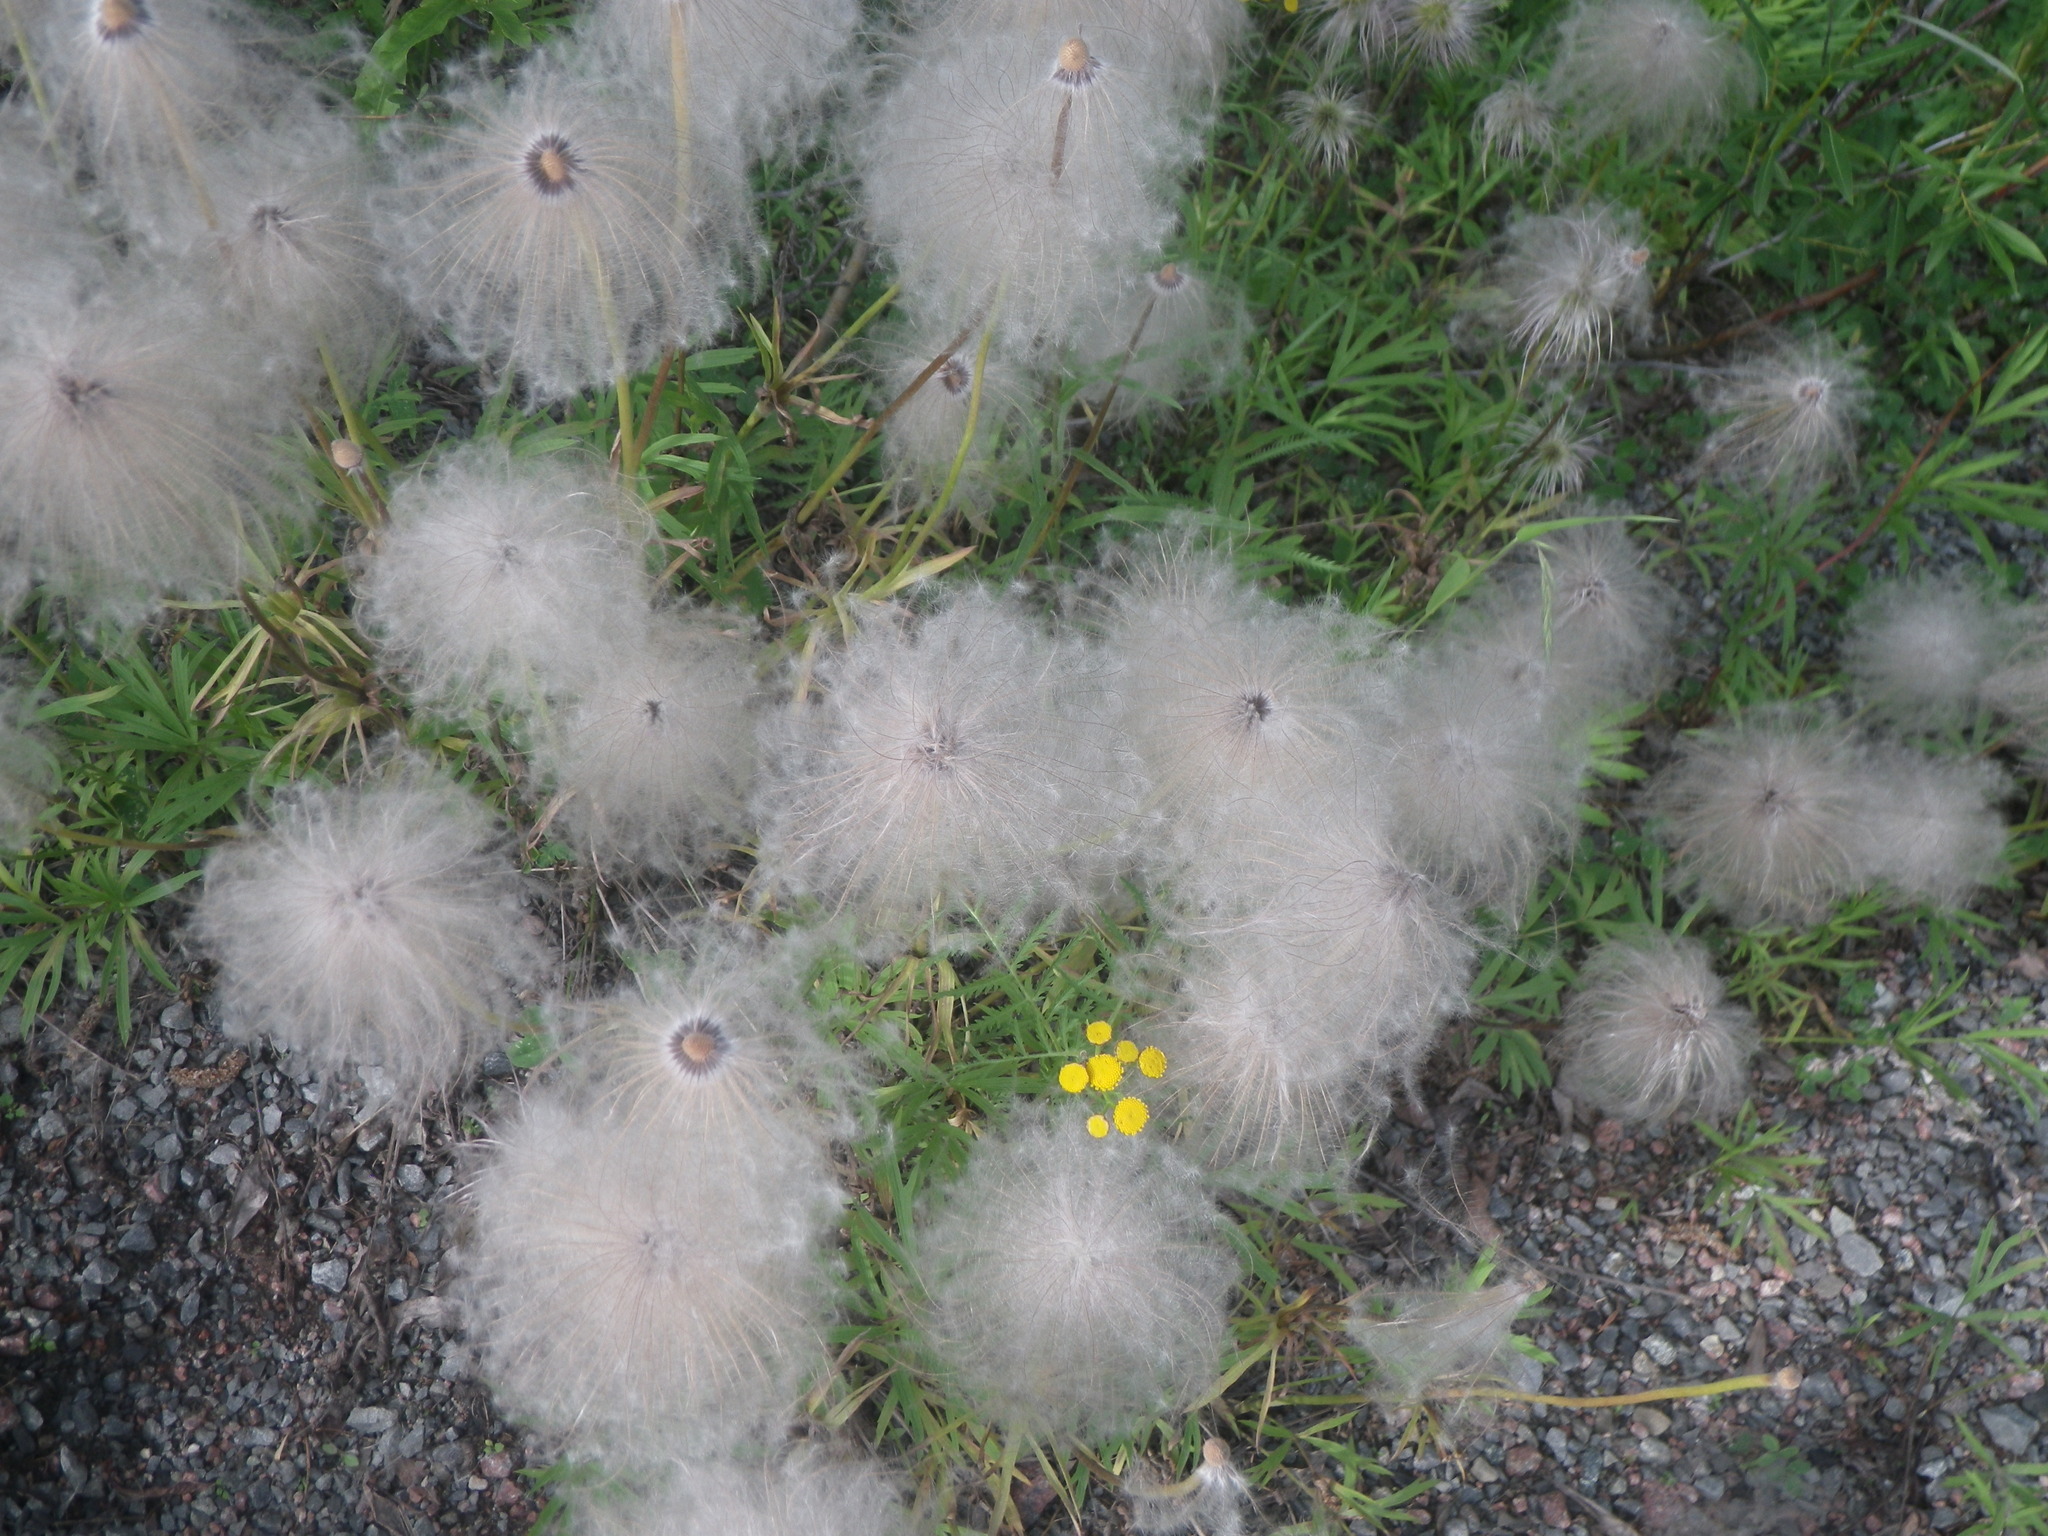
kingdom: Plantae
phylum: Tracheophyta
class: Magnoliopsida
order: Asterales
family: Asteraceae
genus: Tanacetum
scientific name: Tanacetum vulgare
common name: Common tansy
